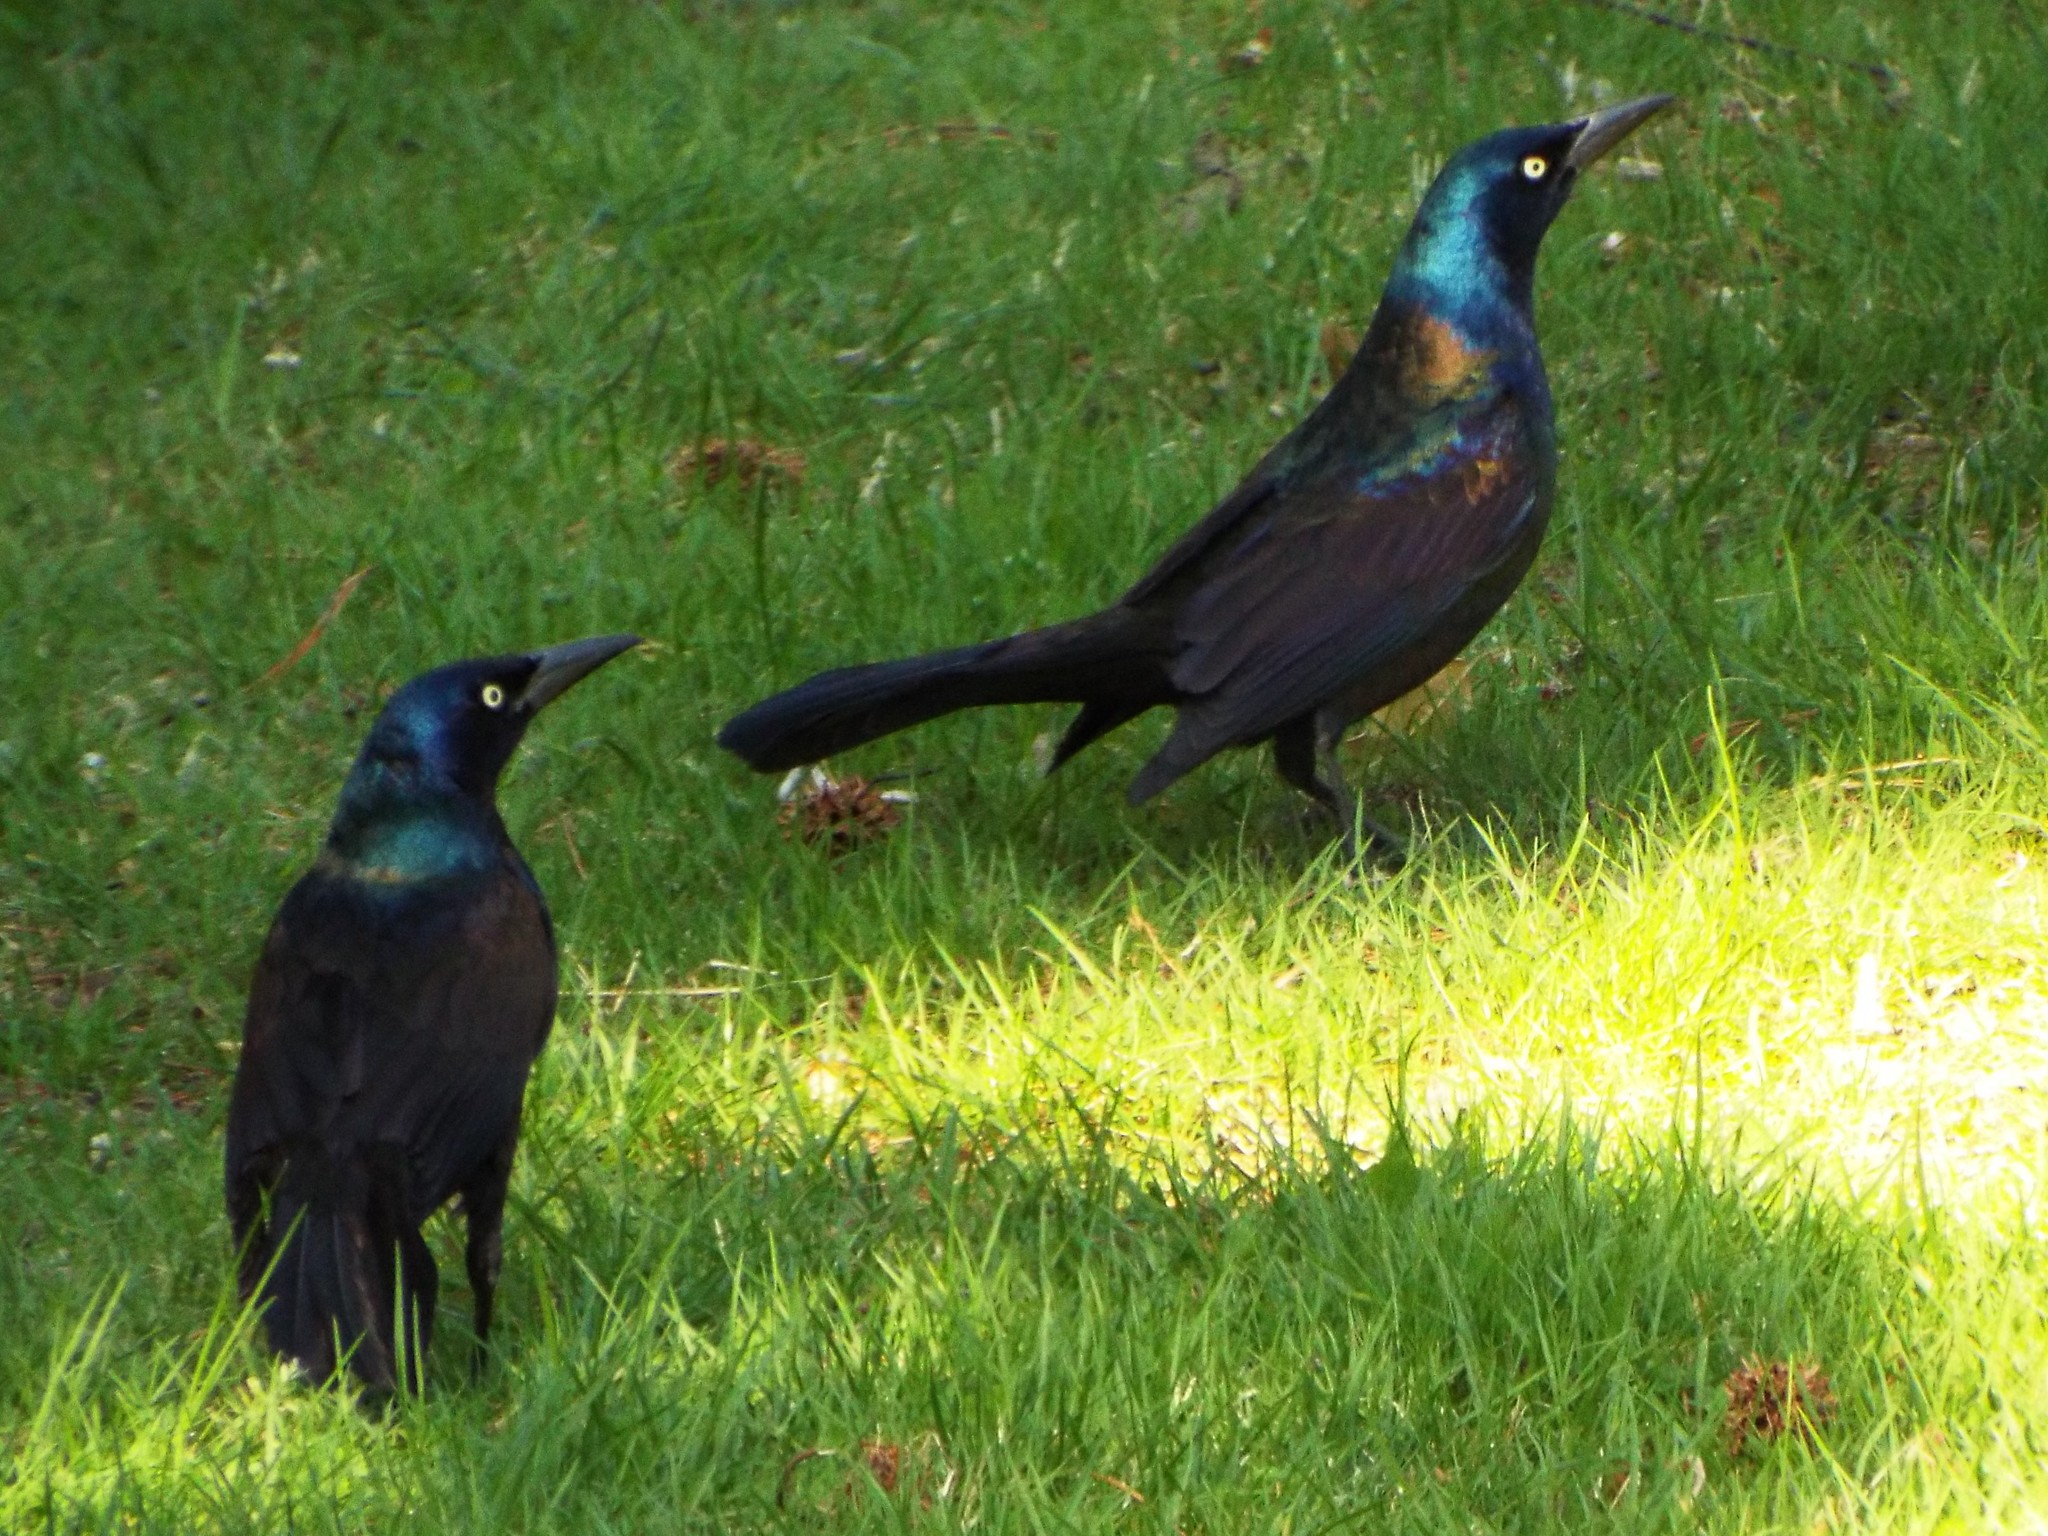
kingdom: Animalia
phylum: Chordata
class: Aves
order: Passeriformes
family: Icteridae
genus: Quiscalus
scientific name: Quiscalus quiscula
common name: Common grackle
